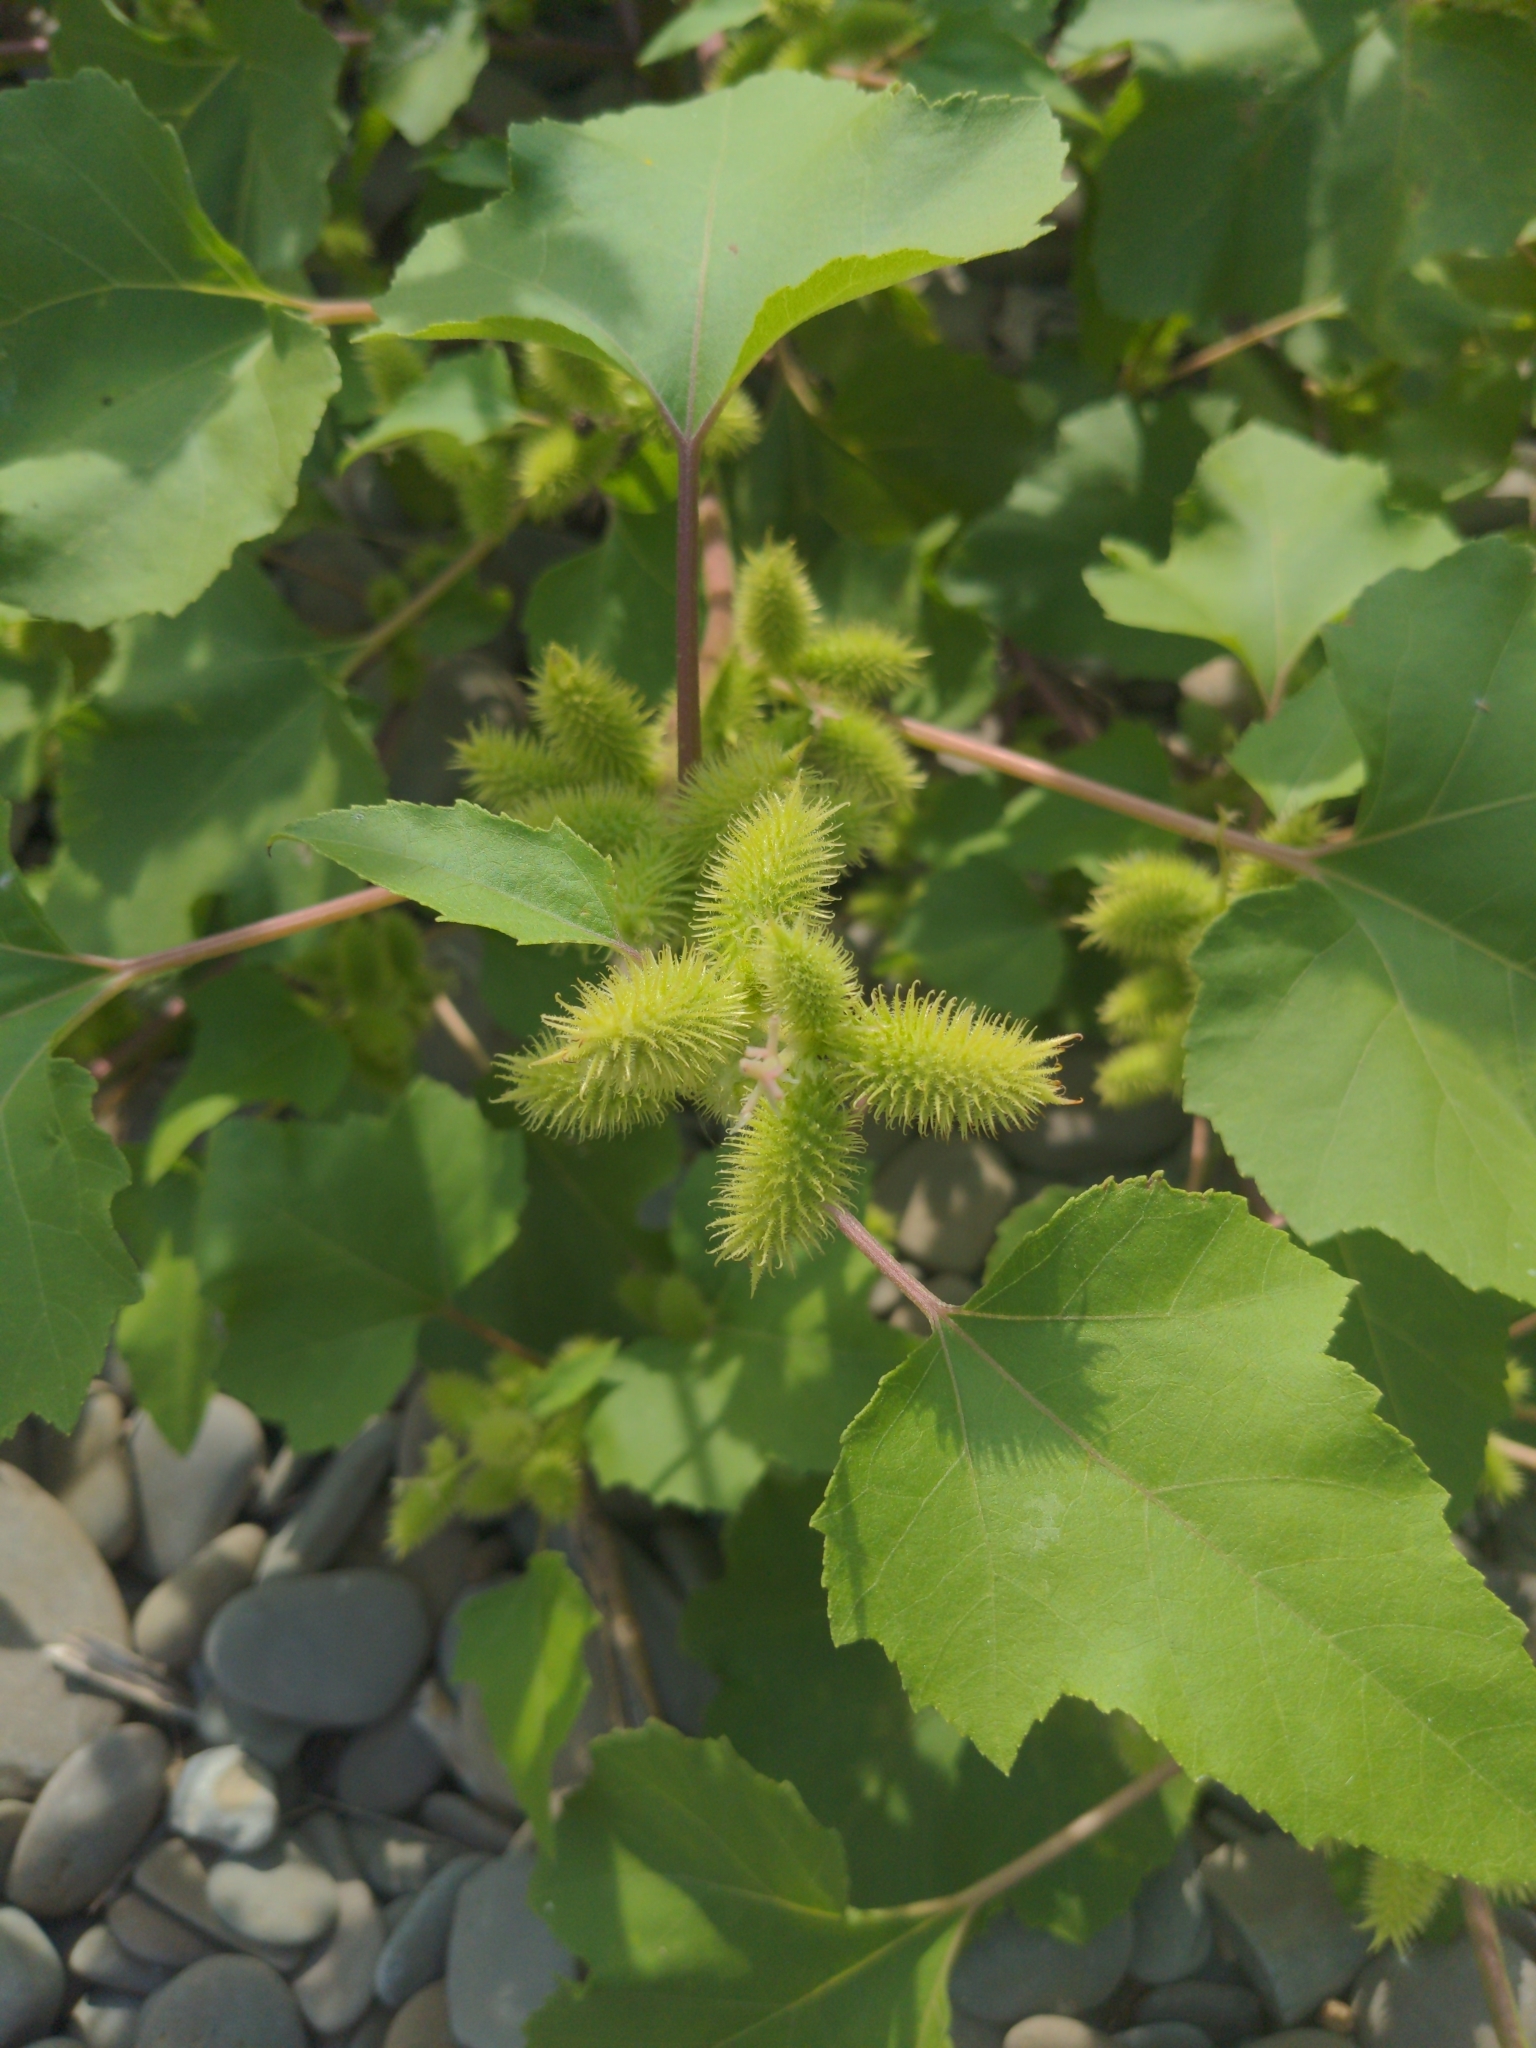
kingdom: Plantae
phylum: Tracheophyta
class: Magnoliopsida
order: Asterales
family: Asteraceae
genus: Xanthium
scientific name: Xanthium strumarium
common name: Rough cocklebur
